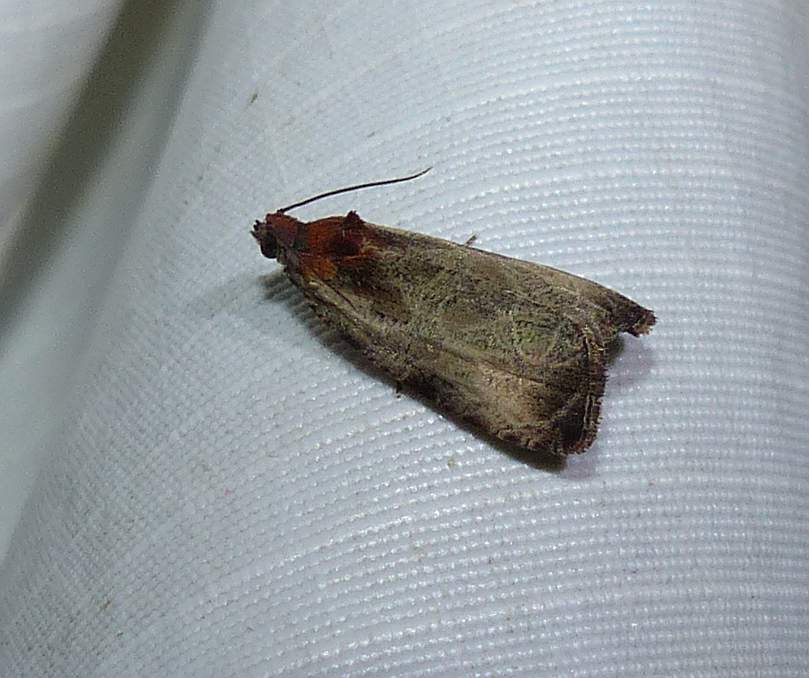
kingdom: Animalia
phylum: Arthropoda
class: Insecta
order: Lepidoptera
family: Tortricidae
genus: Olethreutes
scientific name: Olethreutes inornatana
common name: Inornate olethreutes moth
